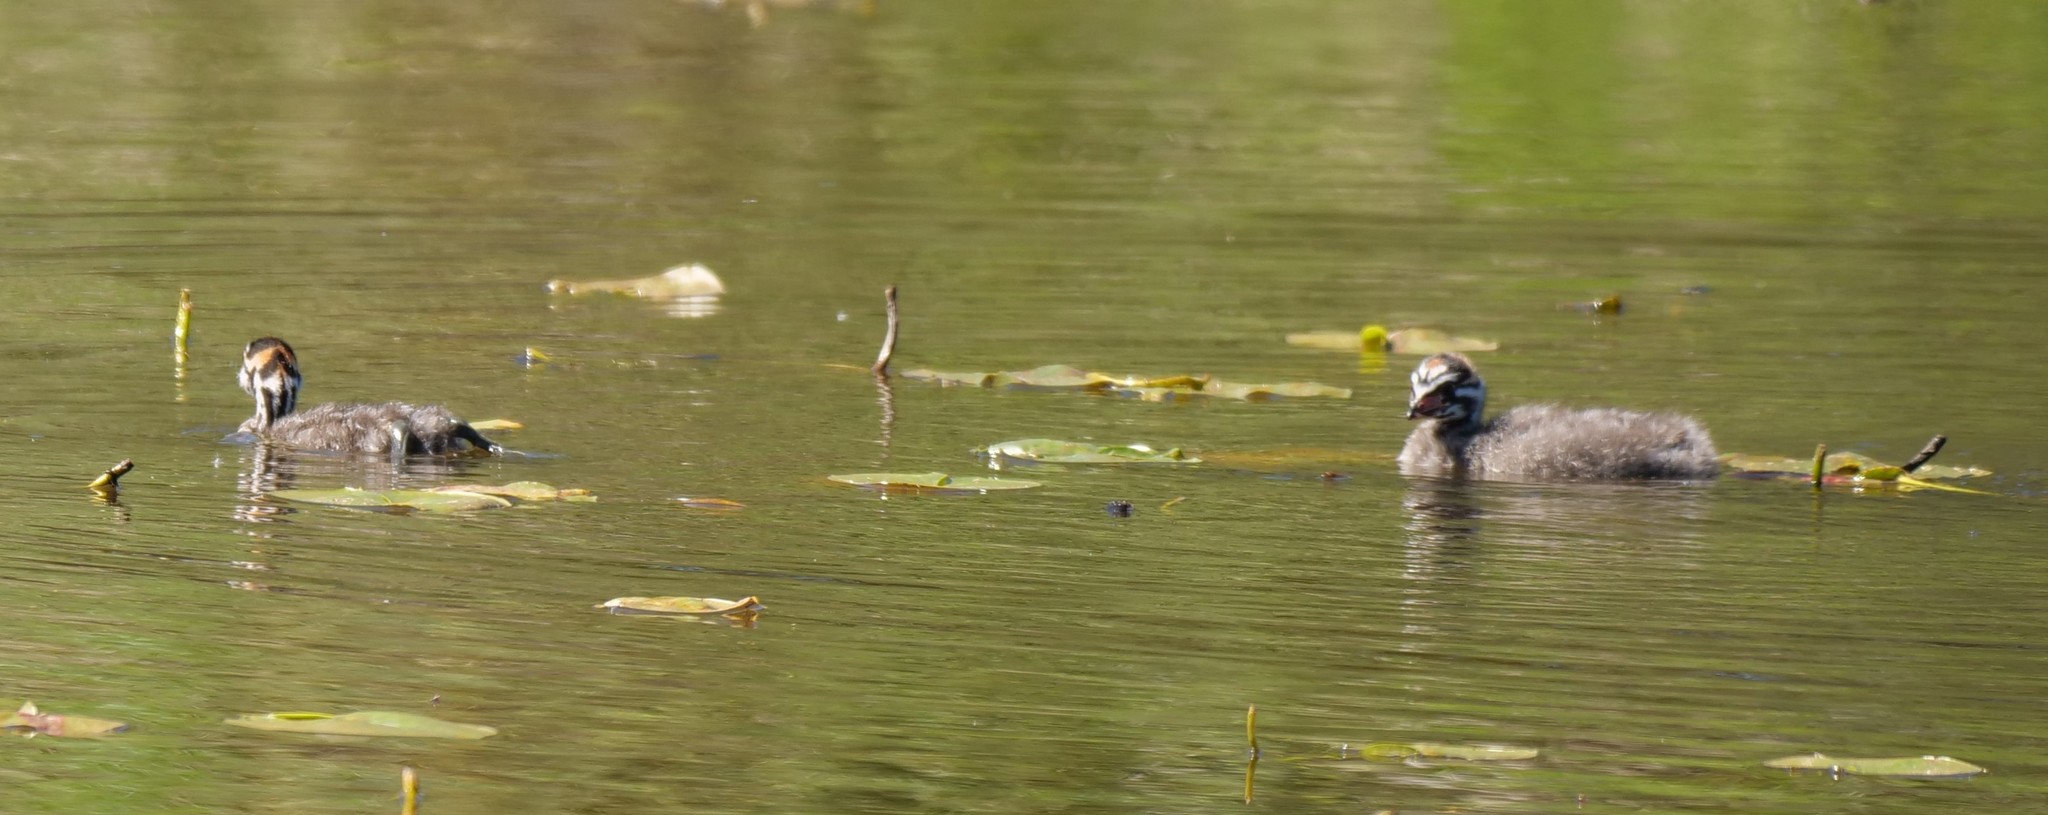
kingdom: Animalia
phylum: Chordata
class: Aves
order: Podicipediformes
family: Podicipedidae
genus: Podilymbus
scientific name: Podilymbus podiceps
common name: Pied-billed grebe
